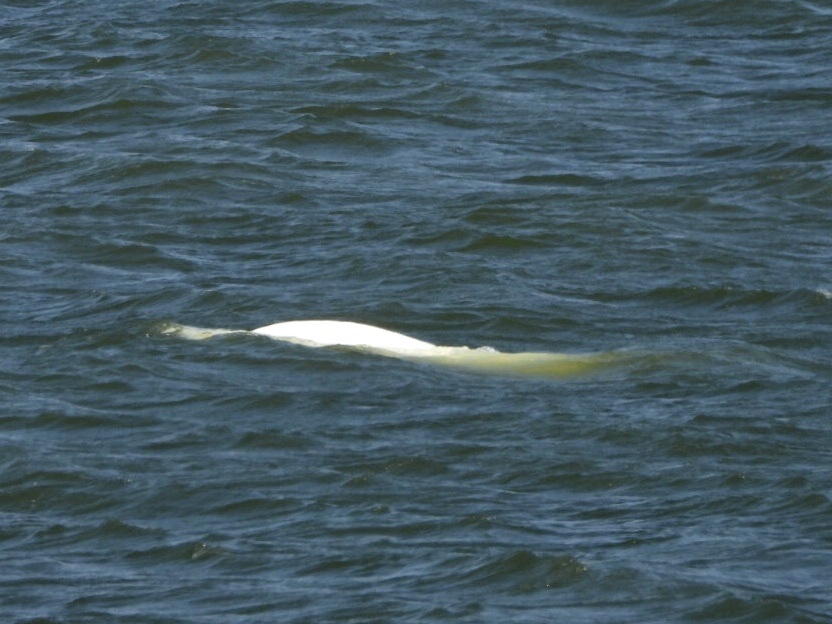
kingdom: Animalia
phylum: Chordata
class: Mammalia
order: Cetacea
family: Monodontidae
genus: Delphinapterus
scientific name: Delphinapterus leucas
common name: Beluga
